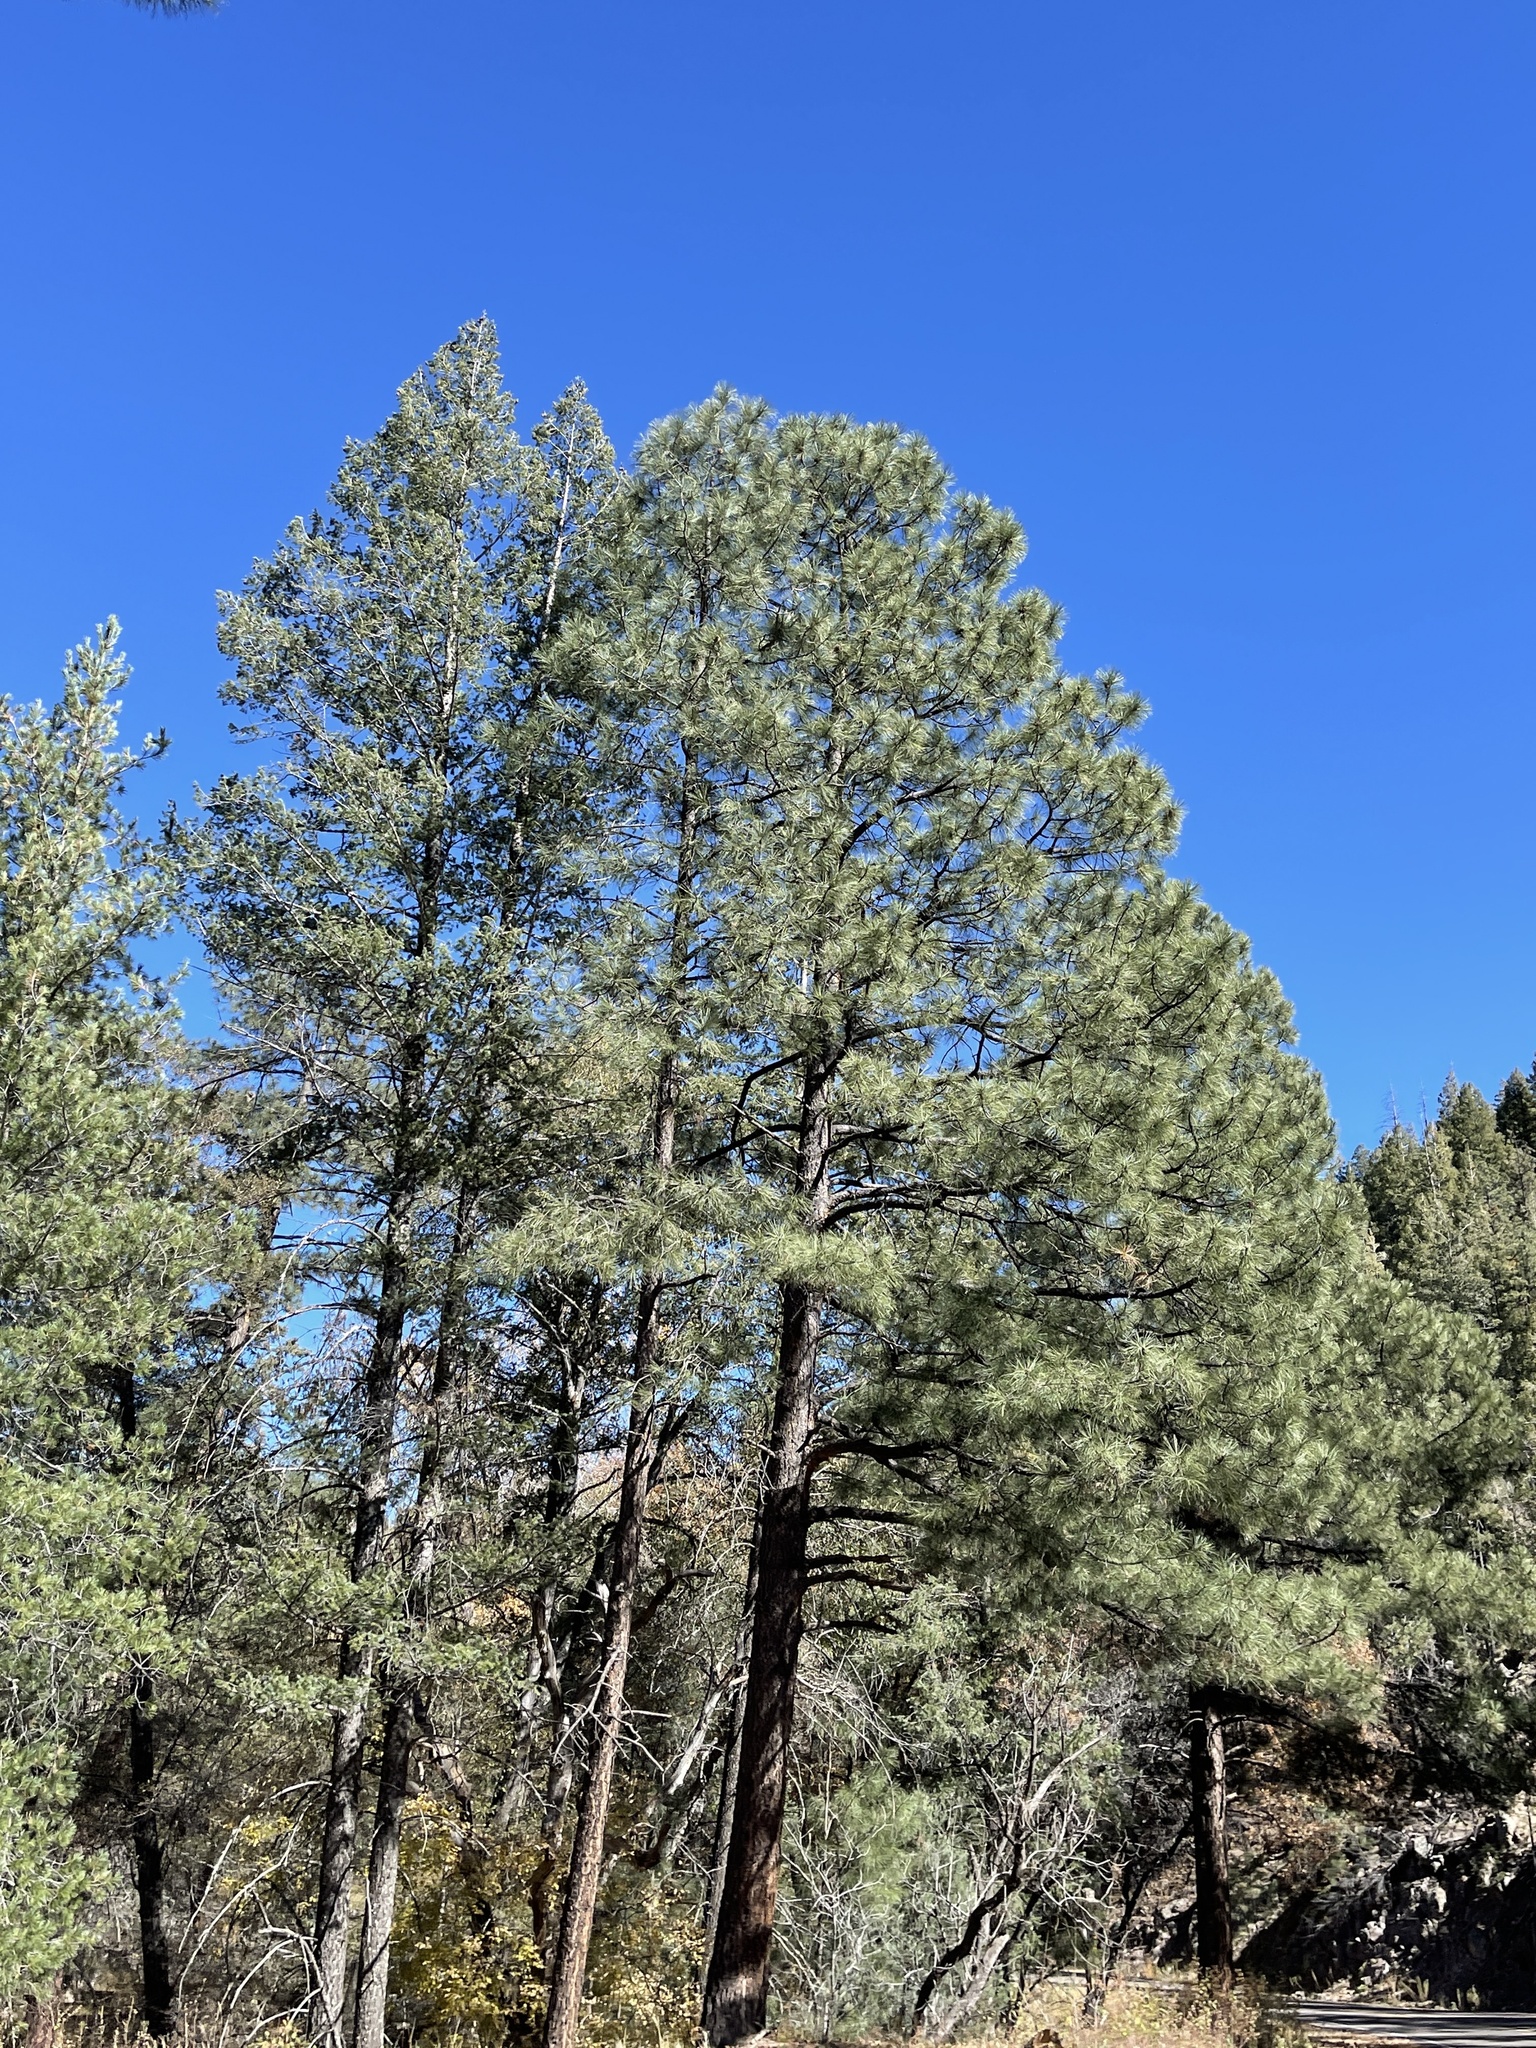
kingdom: Plantae
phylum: Tracheophyta
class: Pinopsida
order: Pinales
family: Pinaceae
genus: Pinus
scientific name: Pinus ponderosa
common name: Western yellow-pine
